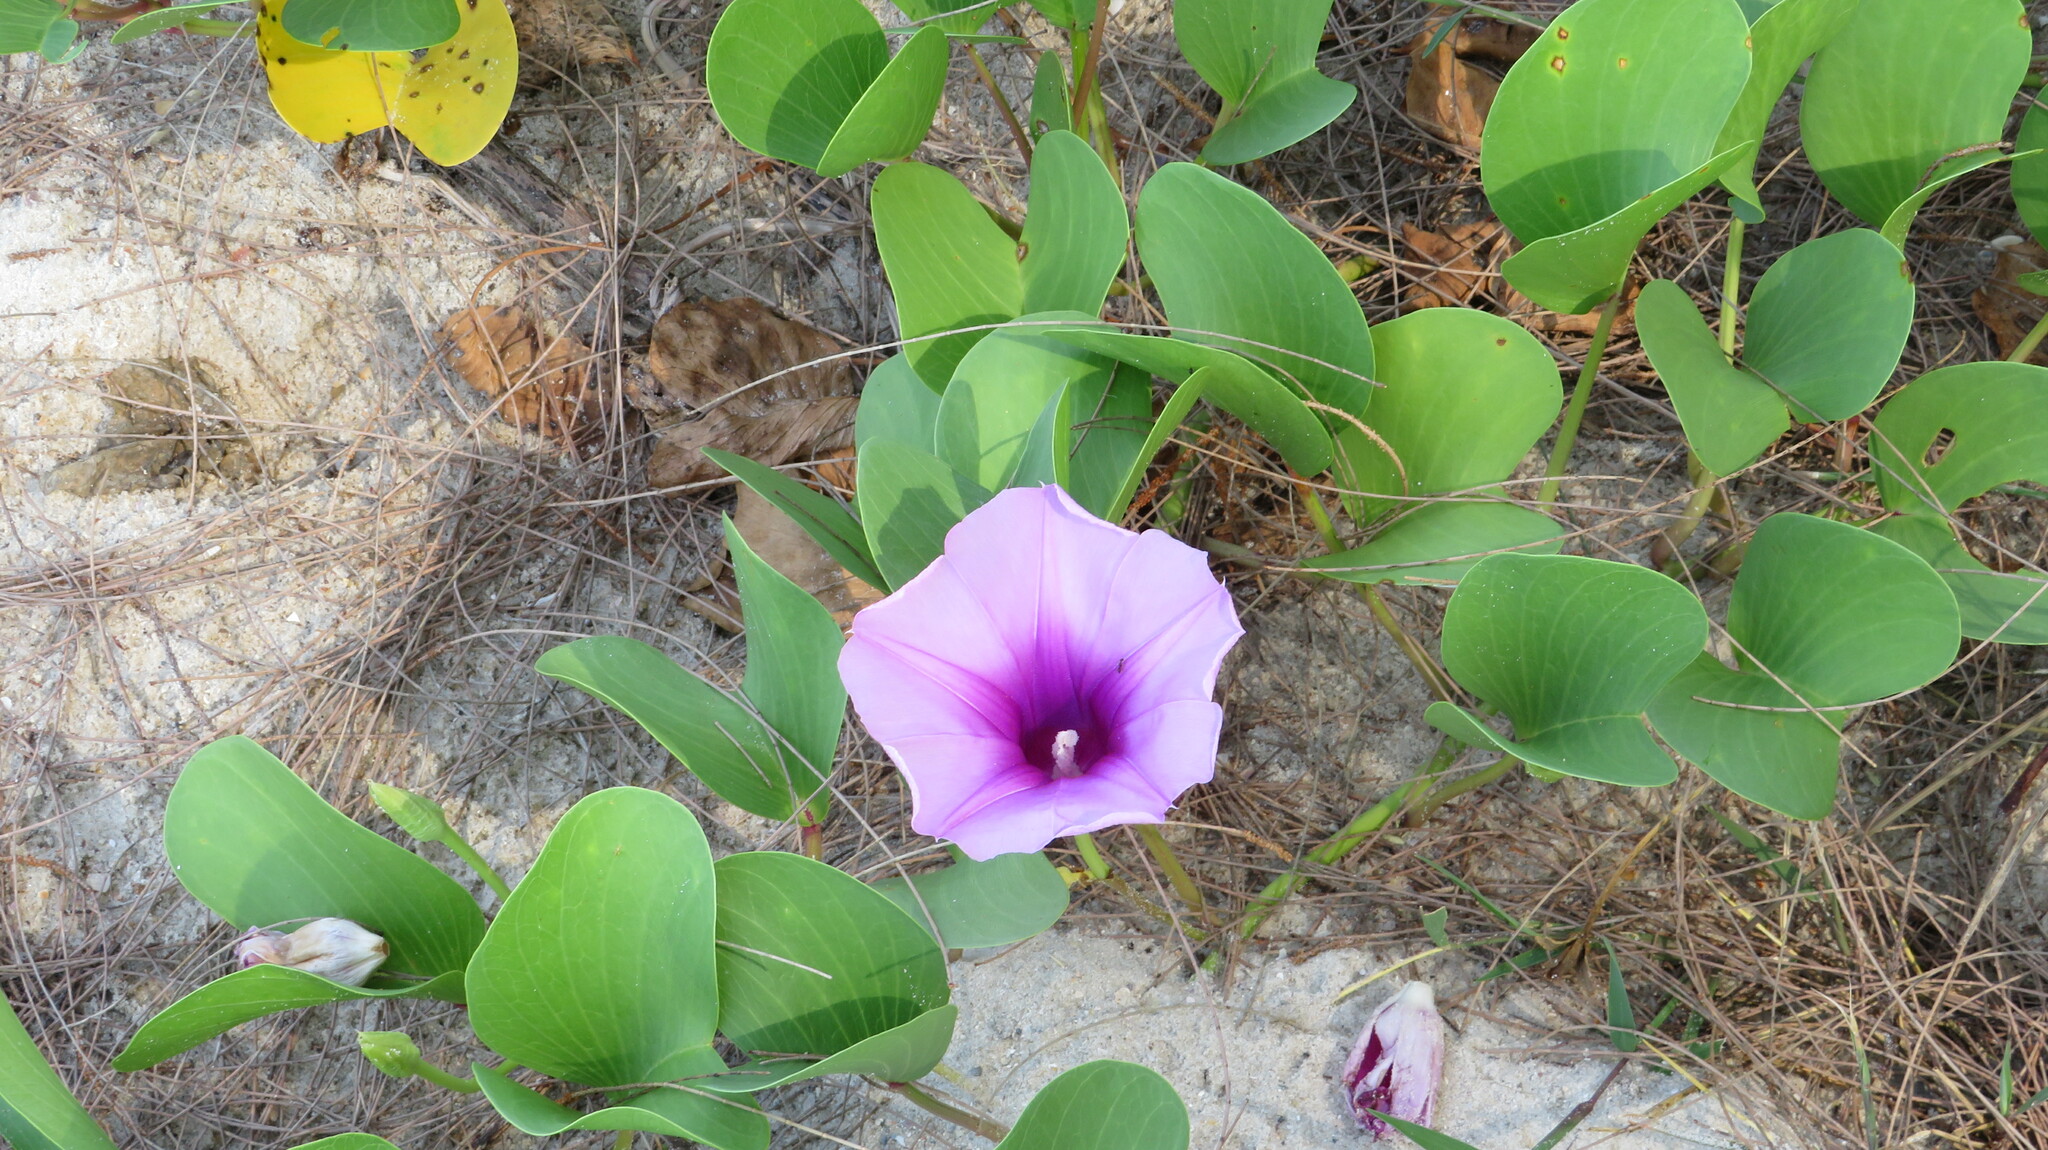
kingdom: Plantae
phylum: Tracheophyta
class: Magnoliopsida
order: Solanales
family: Convolvulaceae
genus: Ipomoea
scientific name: Ipomoea pes-caprae
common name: Beach morning glory
